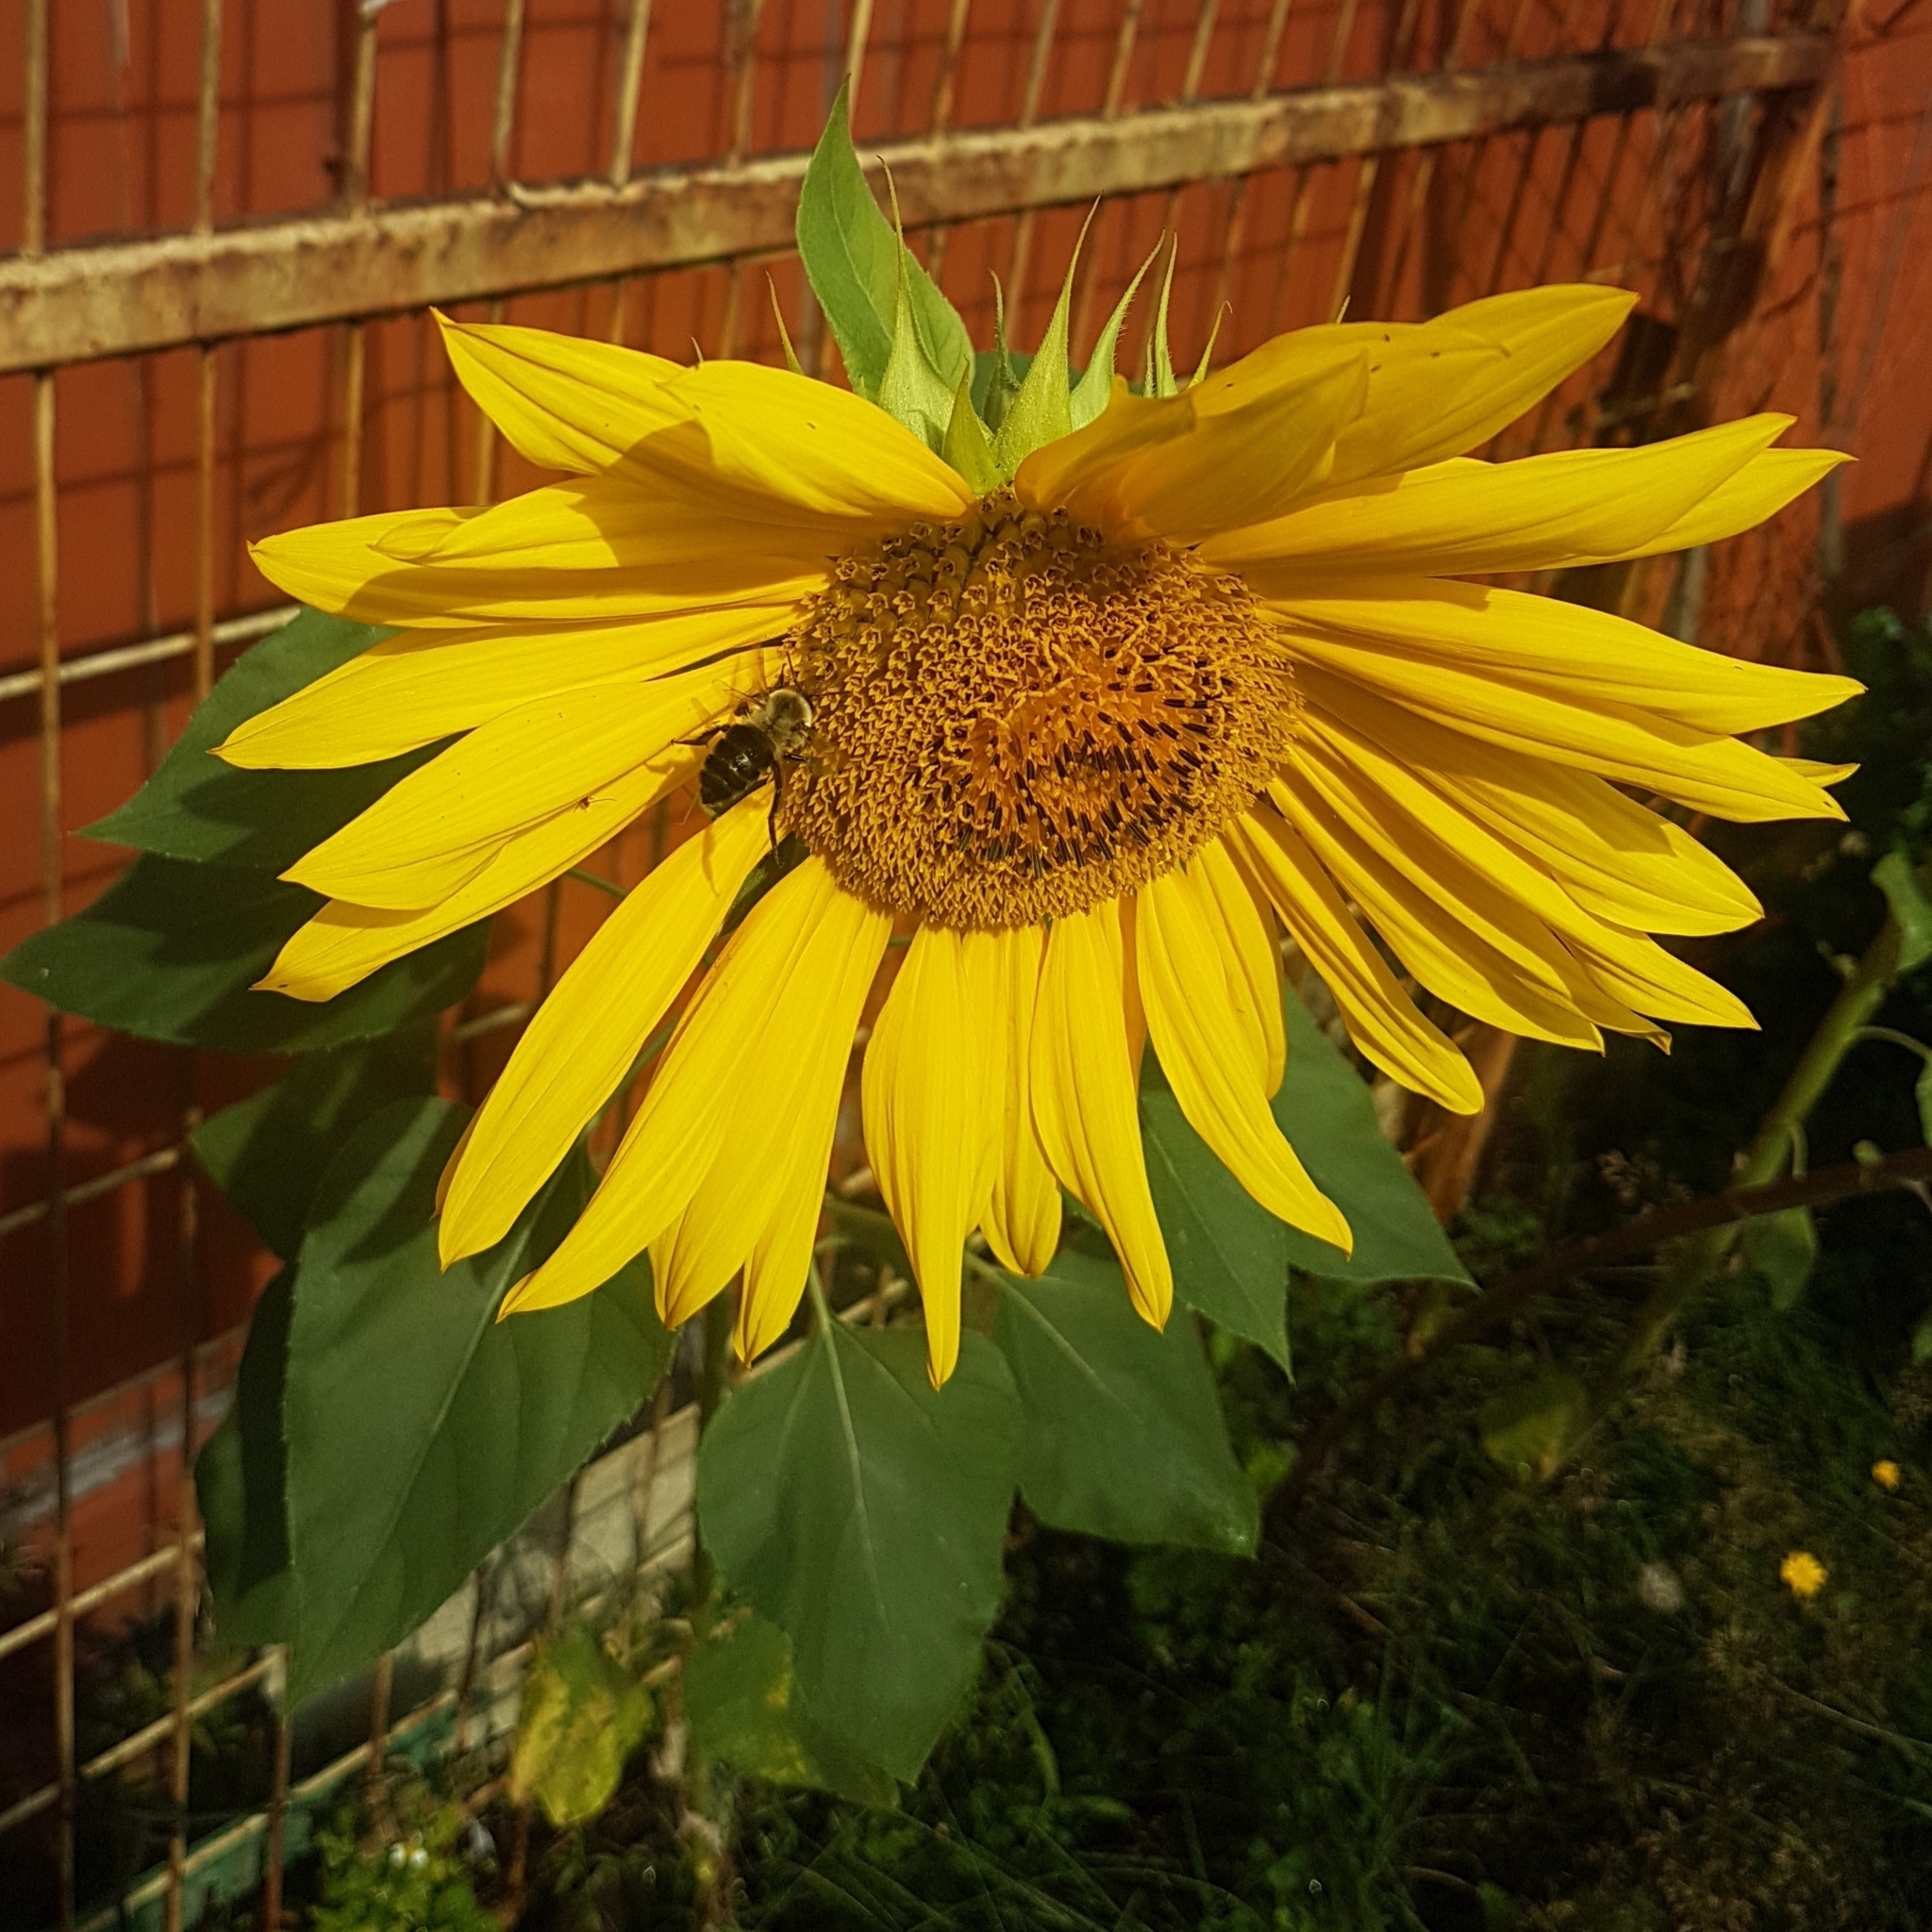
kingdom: Animalia
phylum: Arthropoda
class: Insecta
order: Hymenoptera
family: Apidae
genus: Bombus
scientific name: Bombus impatiens
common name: Common eastern bumble bee
